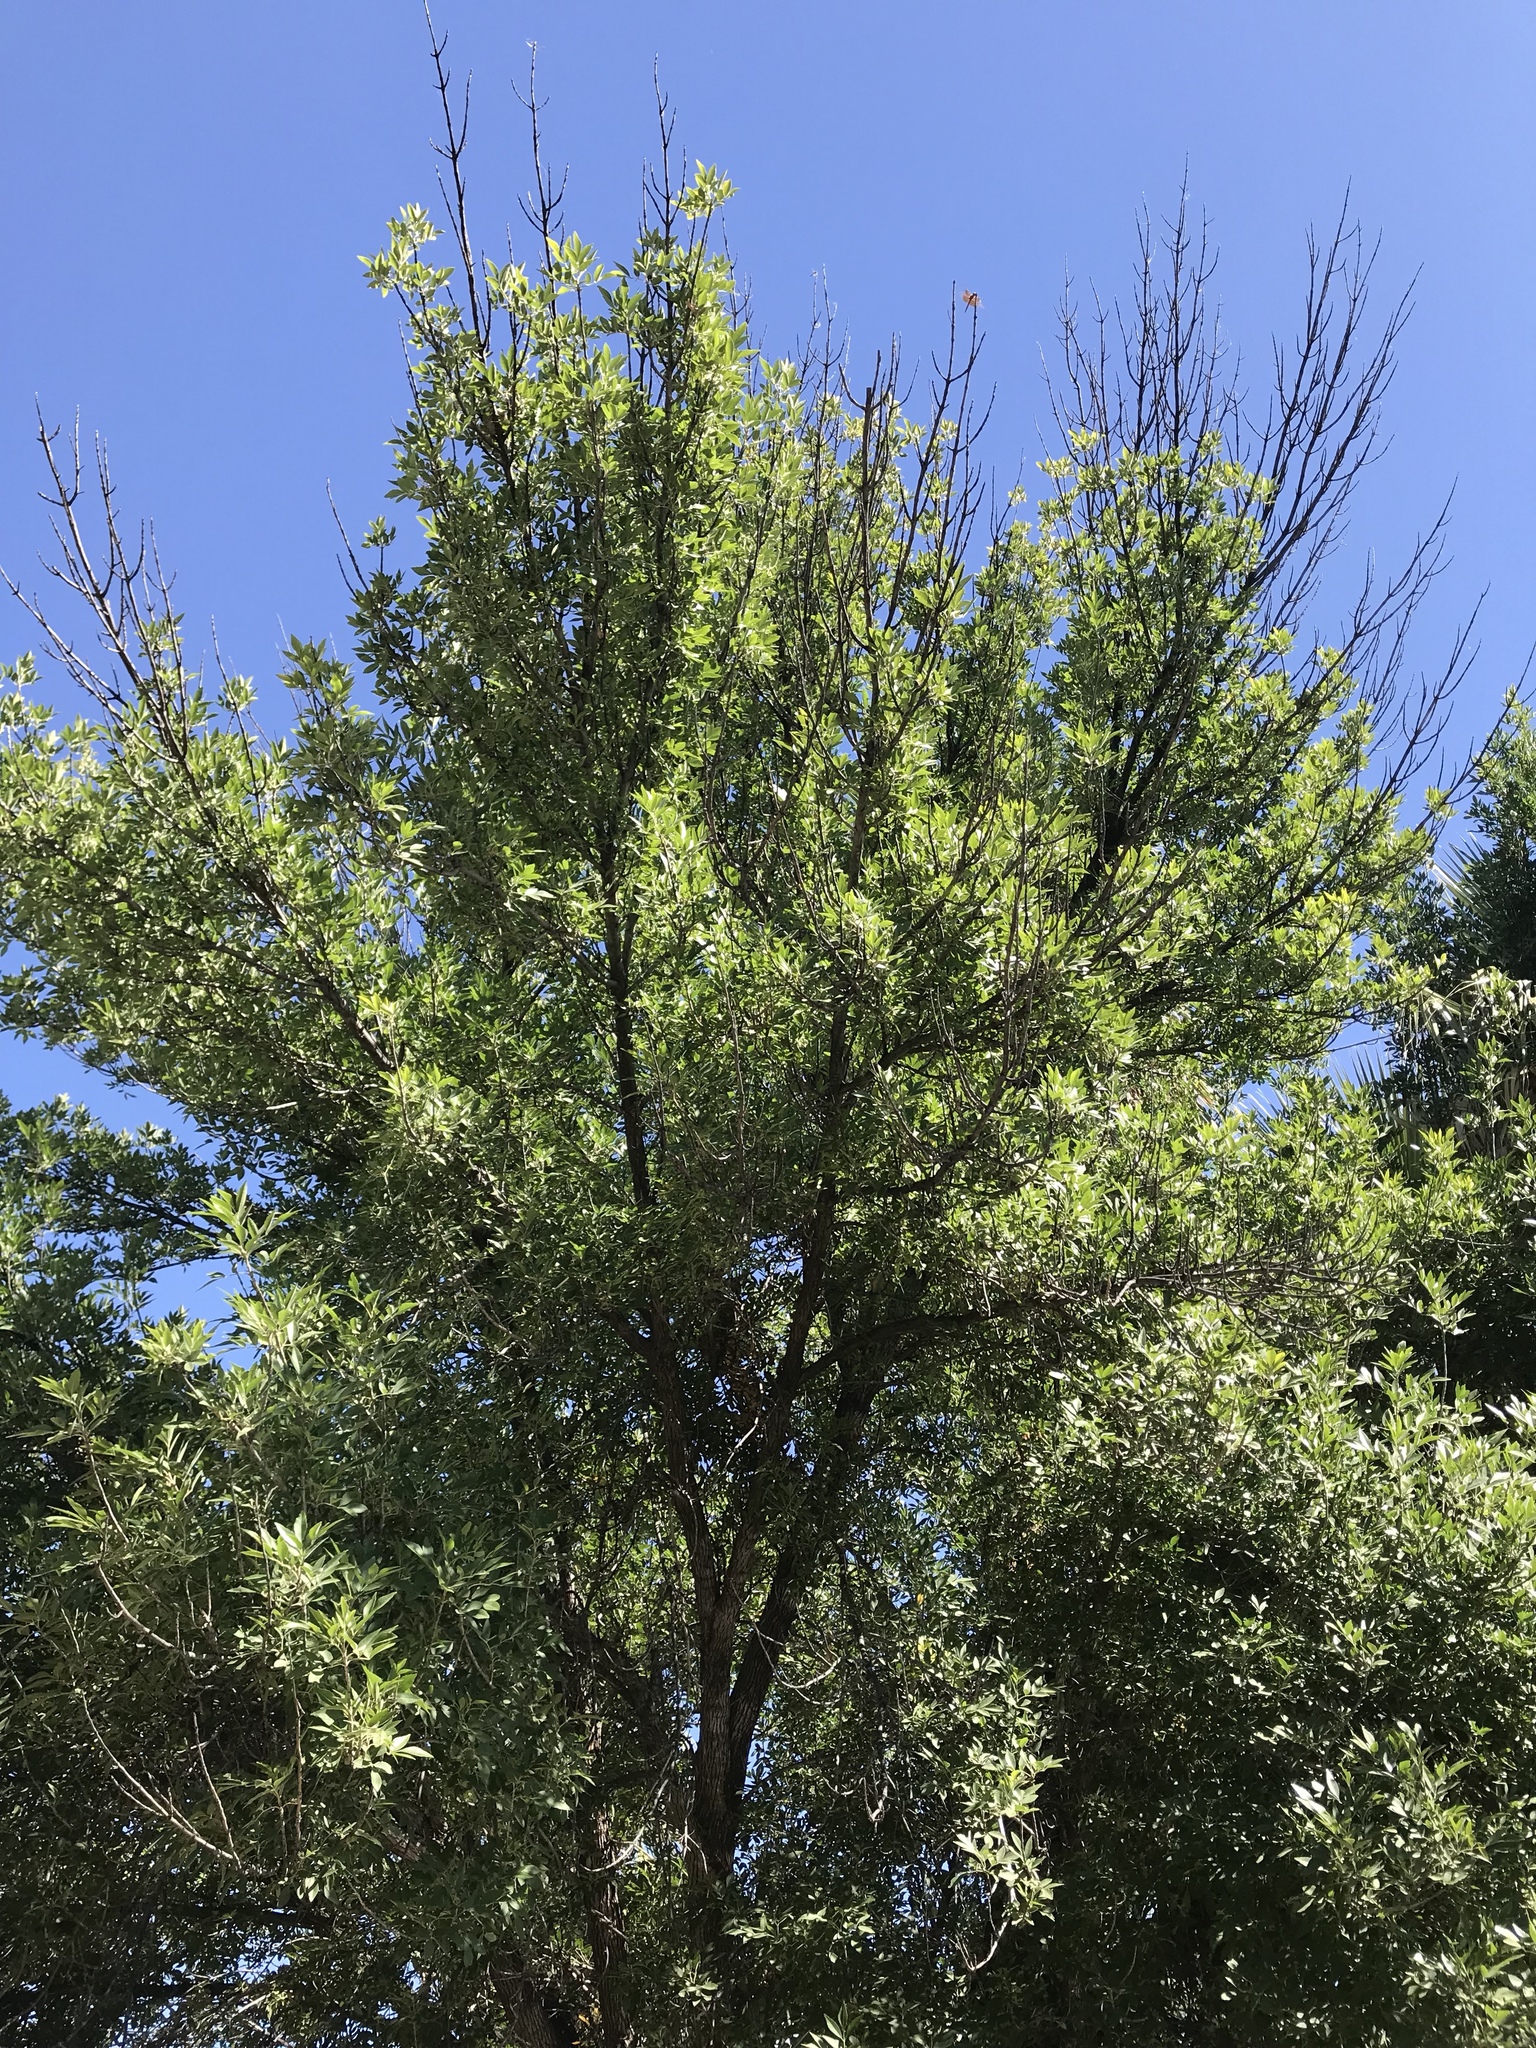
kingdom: Plantae
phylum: Tracheophyta
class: Magnoliopsida
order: Lamiales
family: Oleaceae
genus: Fraxinus
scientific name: Fraxinus velutina
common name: Arizon ash
